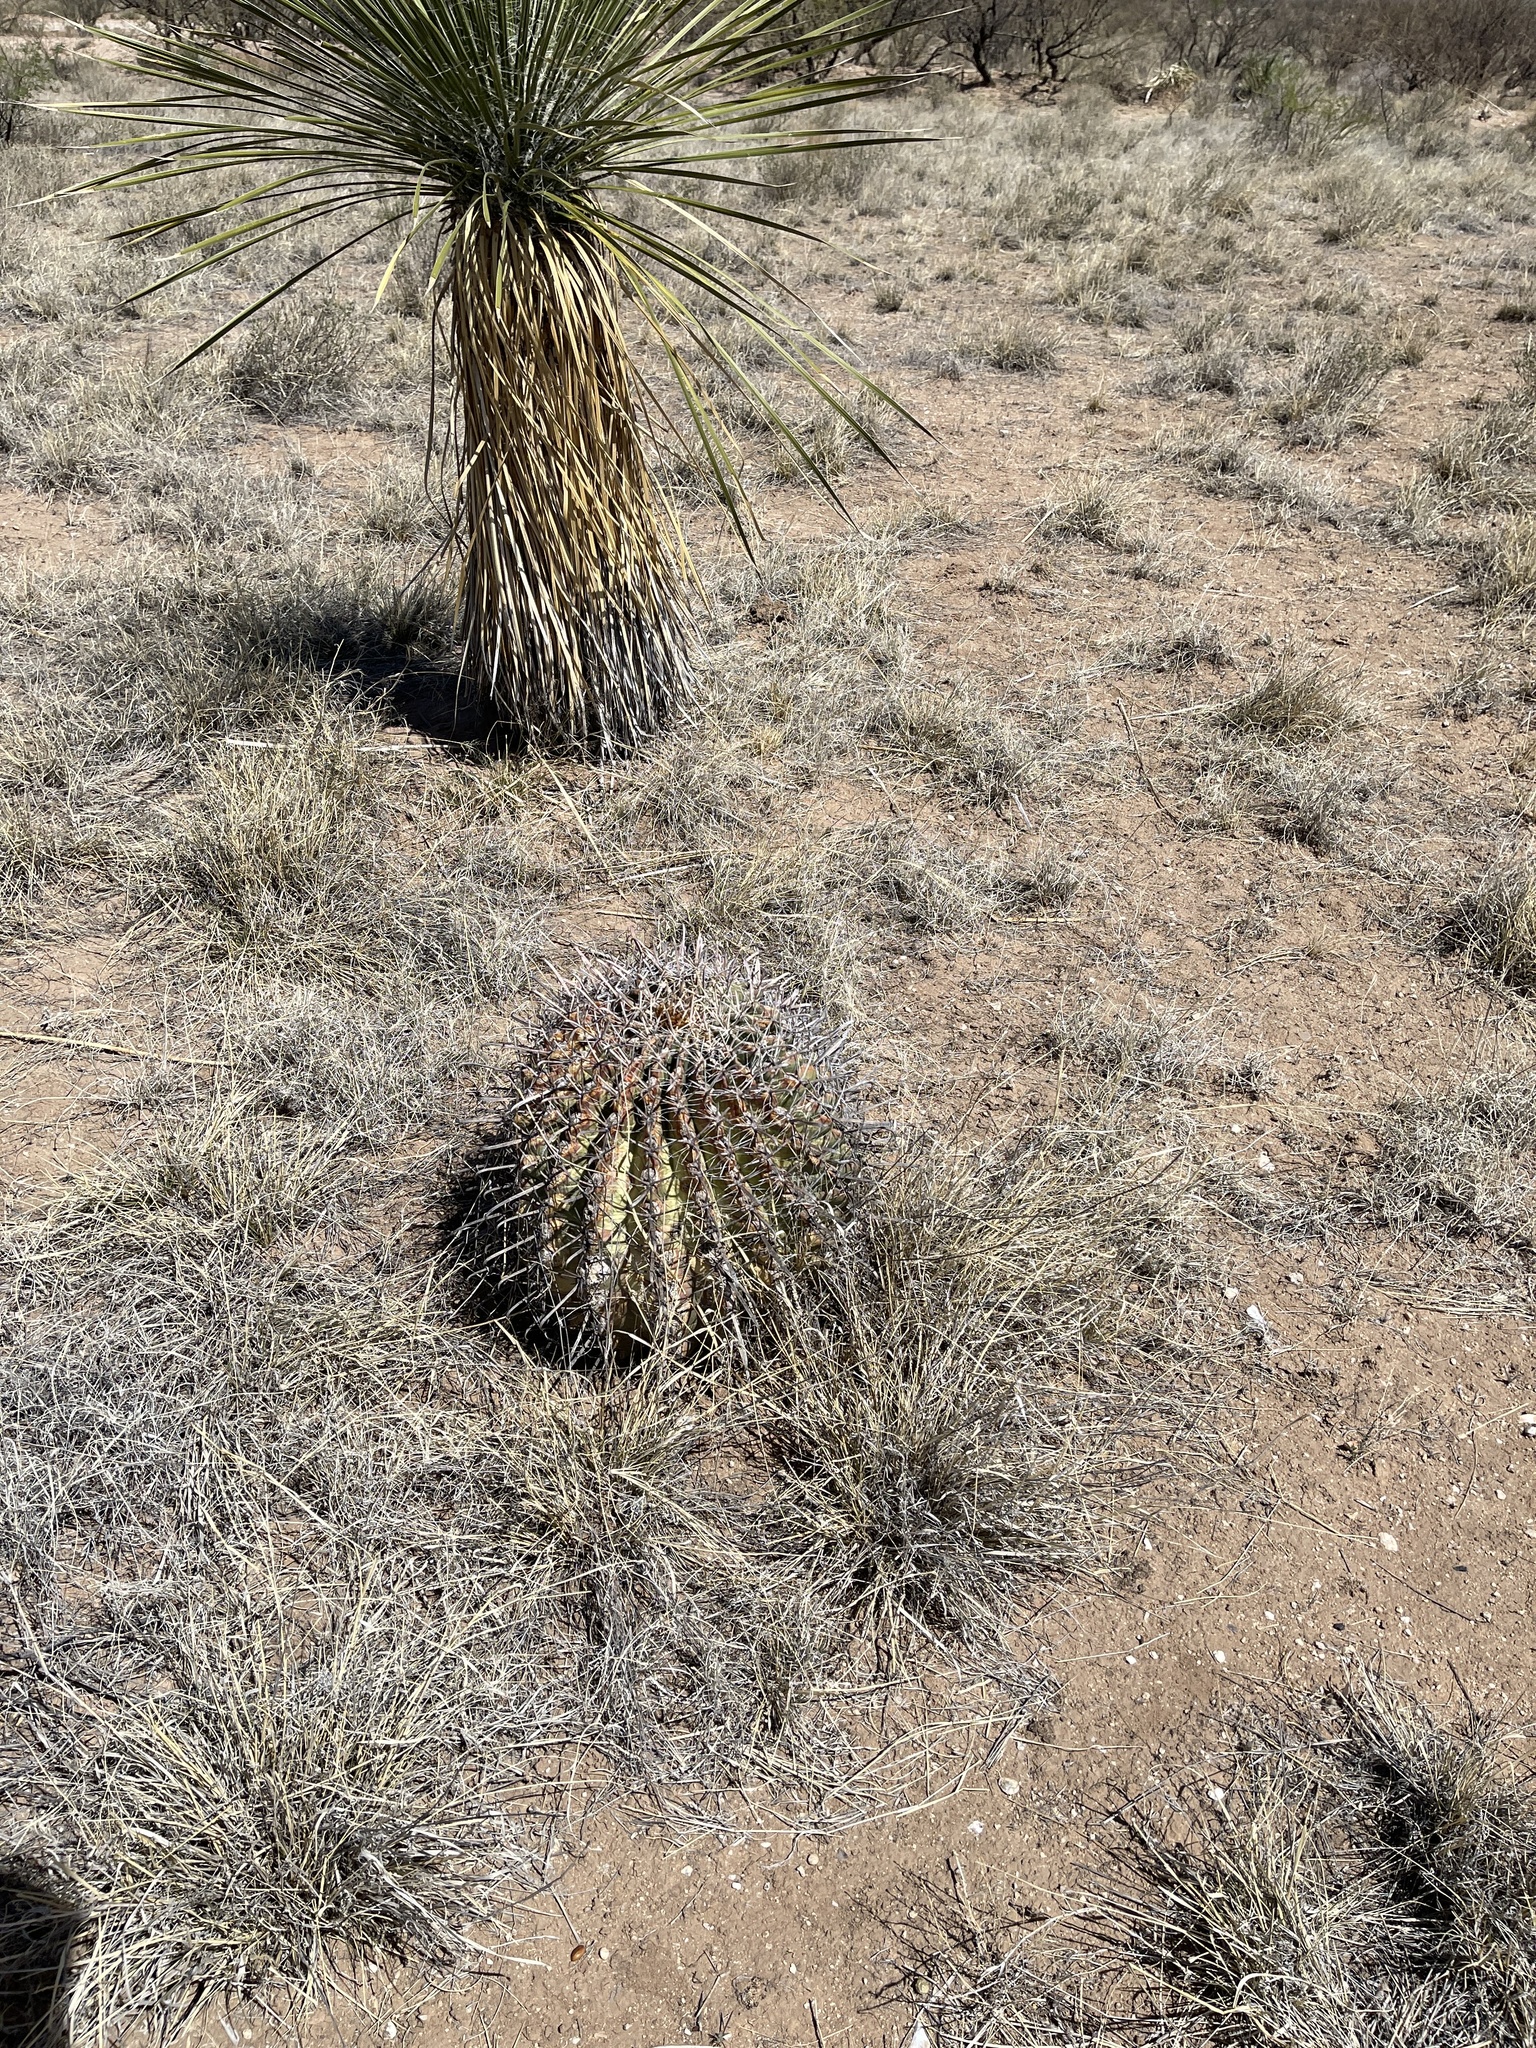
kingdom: Plantae
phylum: Tracheophyta
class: Magnoliopsida
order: Caryophyllales
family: Cactaceae
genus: Ferocactus
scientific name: Ferocactus wislizeni
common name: Candy barrel cactus
